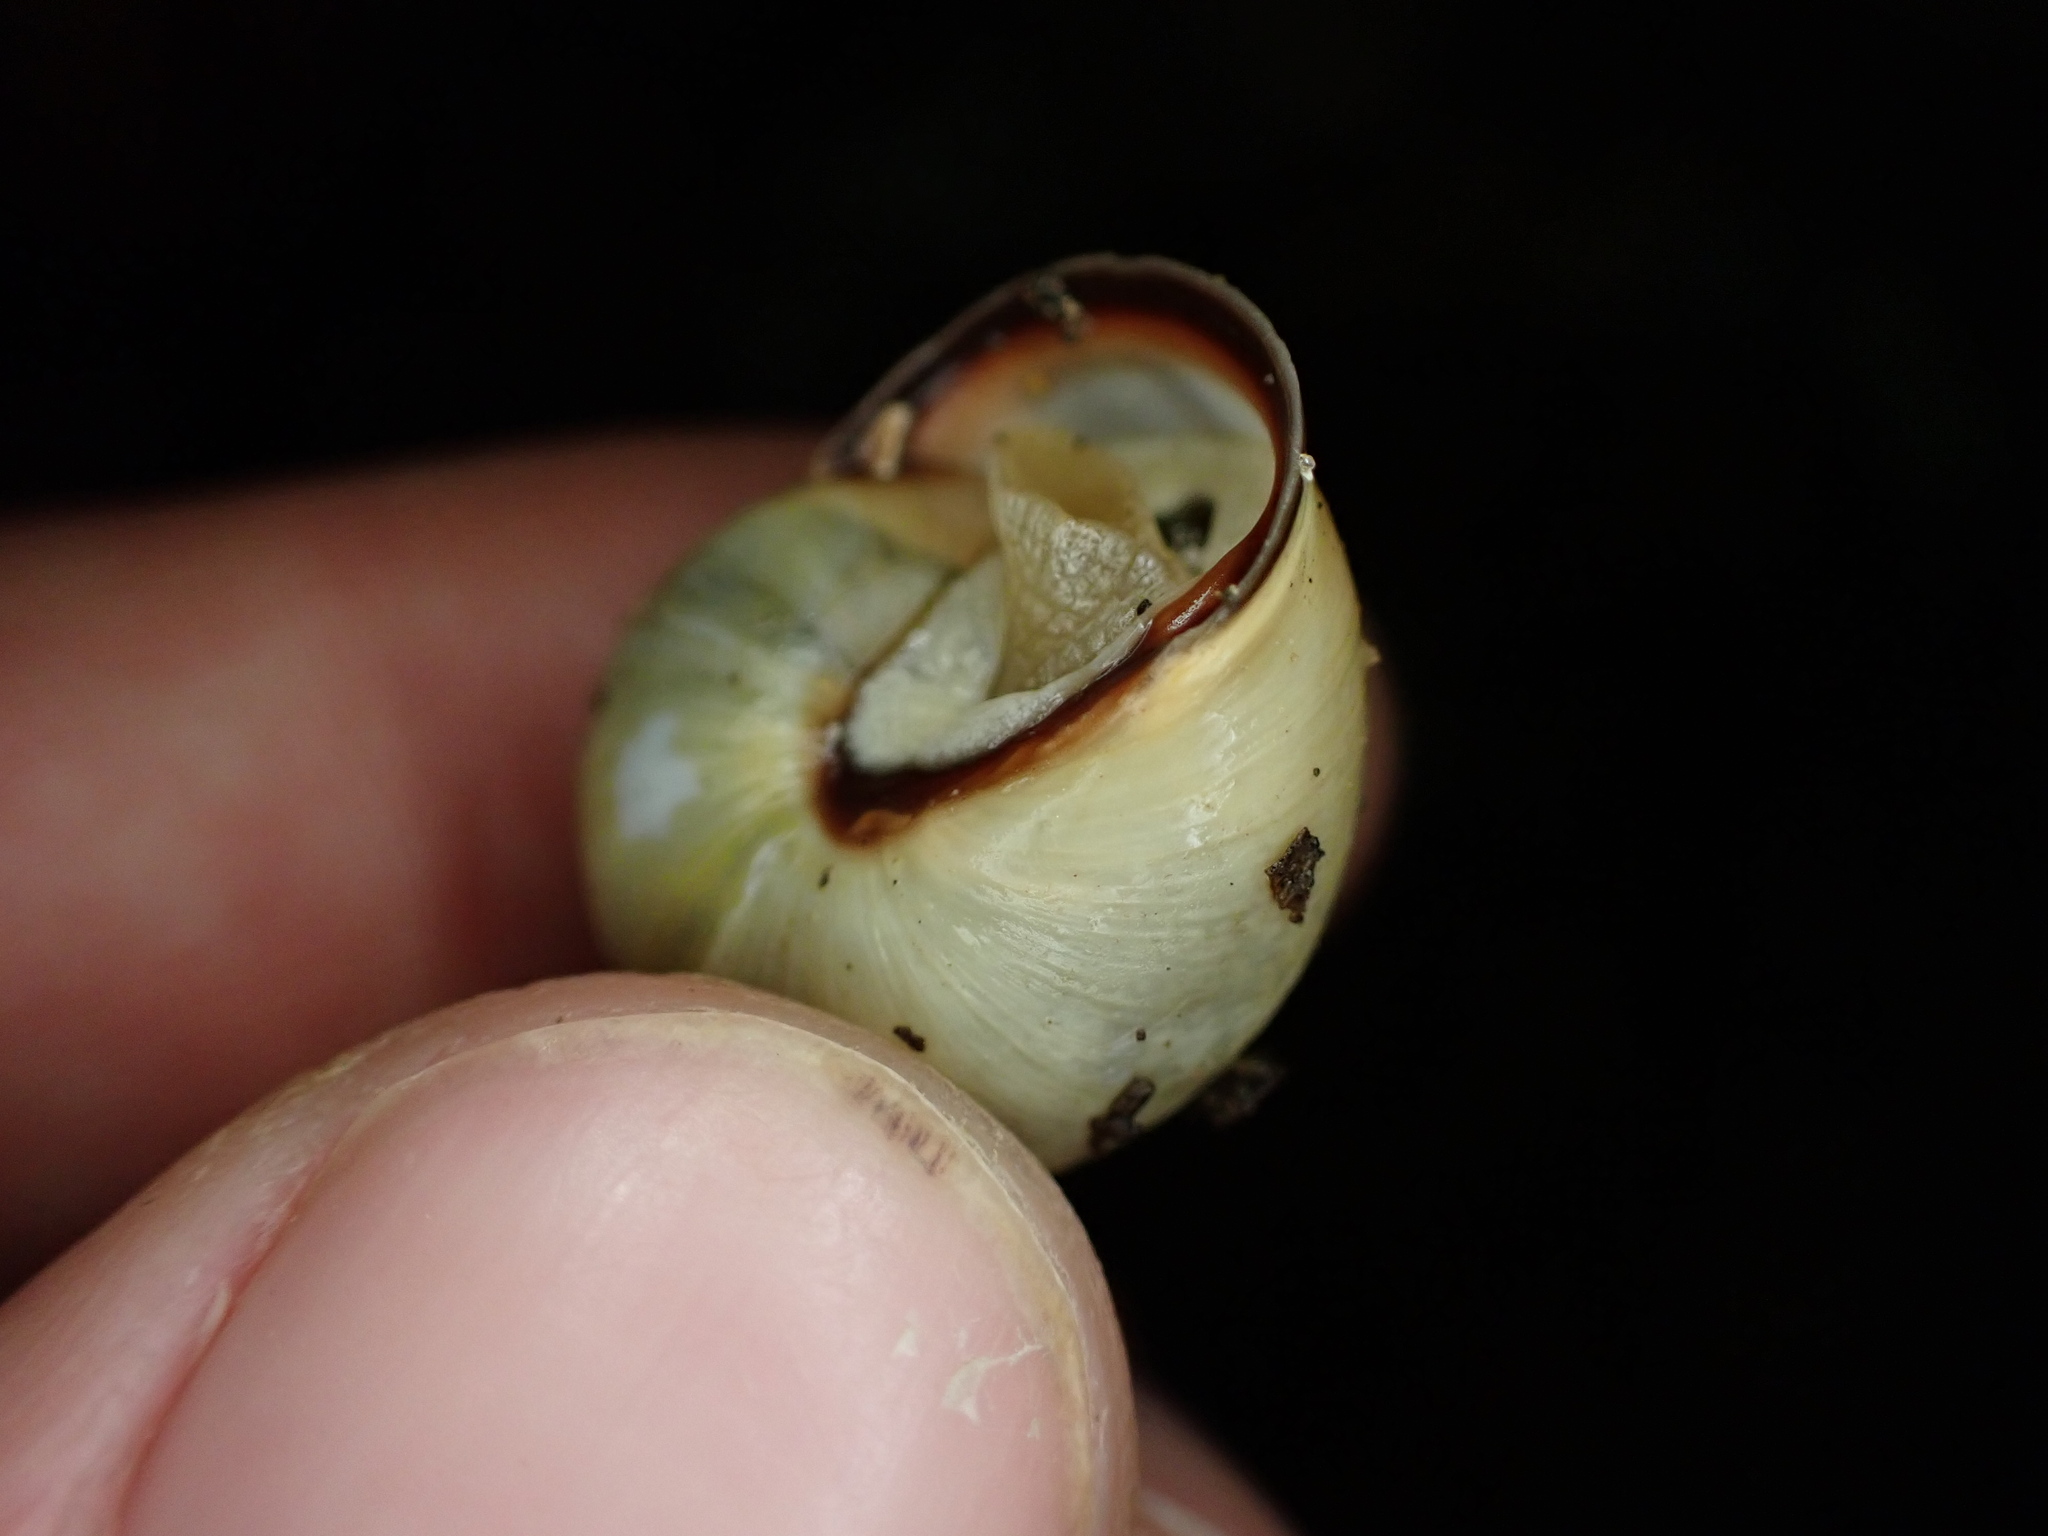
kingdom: Animalia
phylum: Mollusca
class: Gastropoda
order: Stylommatophora
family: Helicidae
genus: Cepaea
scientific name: Cepaea nemoralis
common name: Grovesnail
